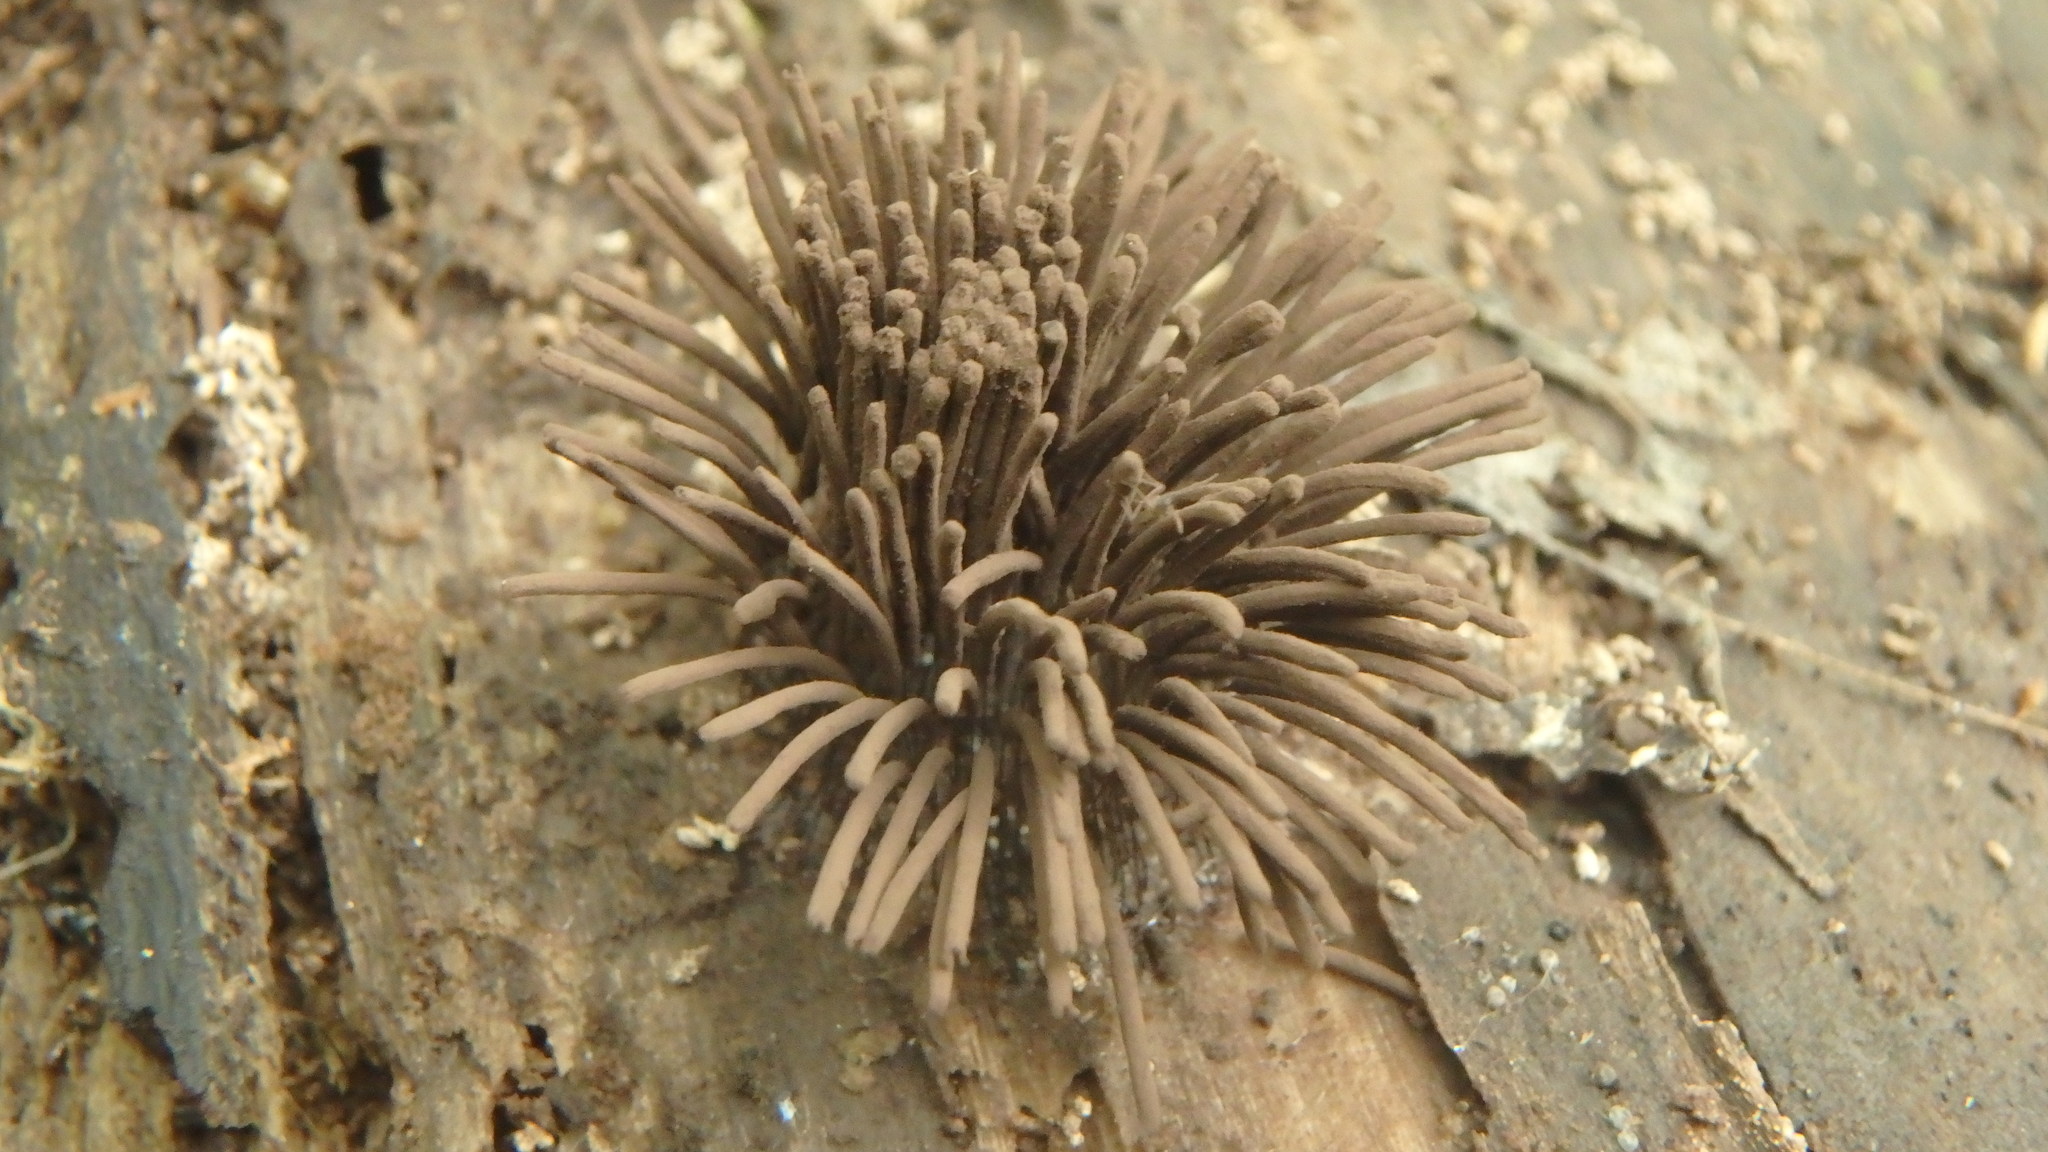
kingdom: Protozoa
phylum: Mycetozoa
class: Myxomycetes
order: Stemonitidales
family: Stemonitidaceae
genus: Stemonitis
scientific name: Stemonitis splendens
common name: Chocolate tube slime
